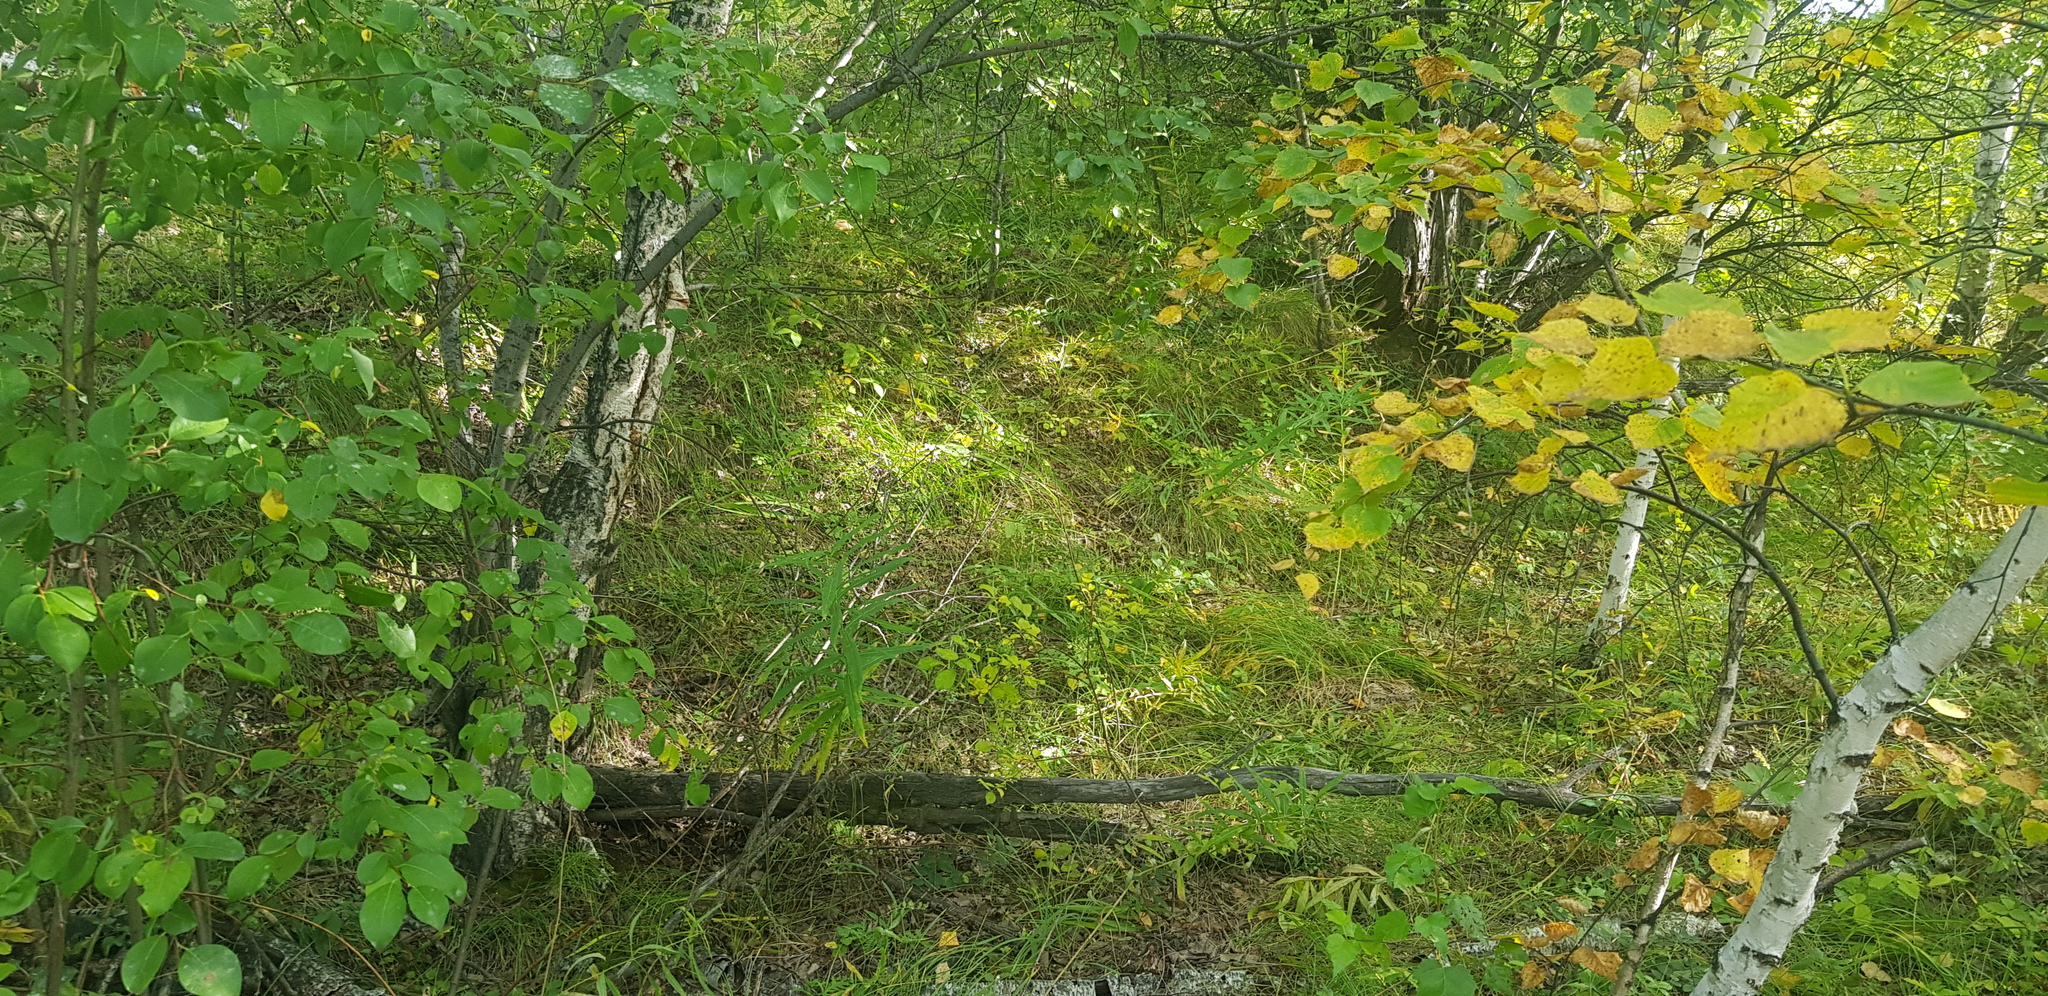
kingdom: Plantae
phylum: Tracheophyta
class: Magnoliopsida
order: Rosales
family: Rosaceae
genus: Malus
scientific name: Malus baccata
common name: Siberian crab
